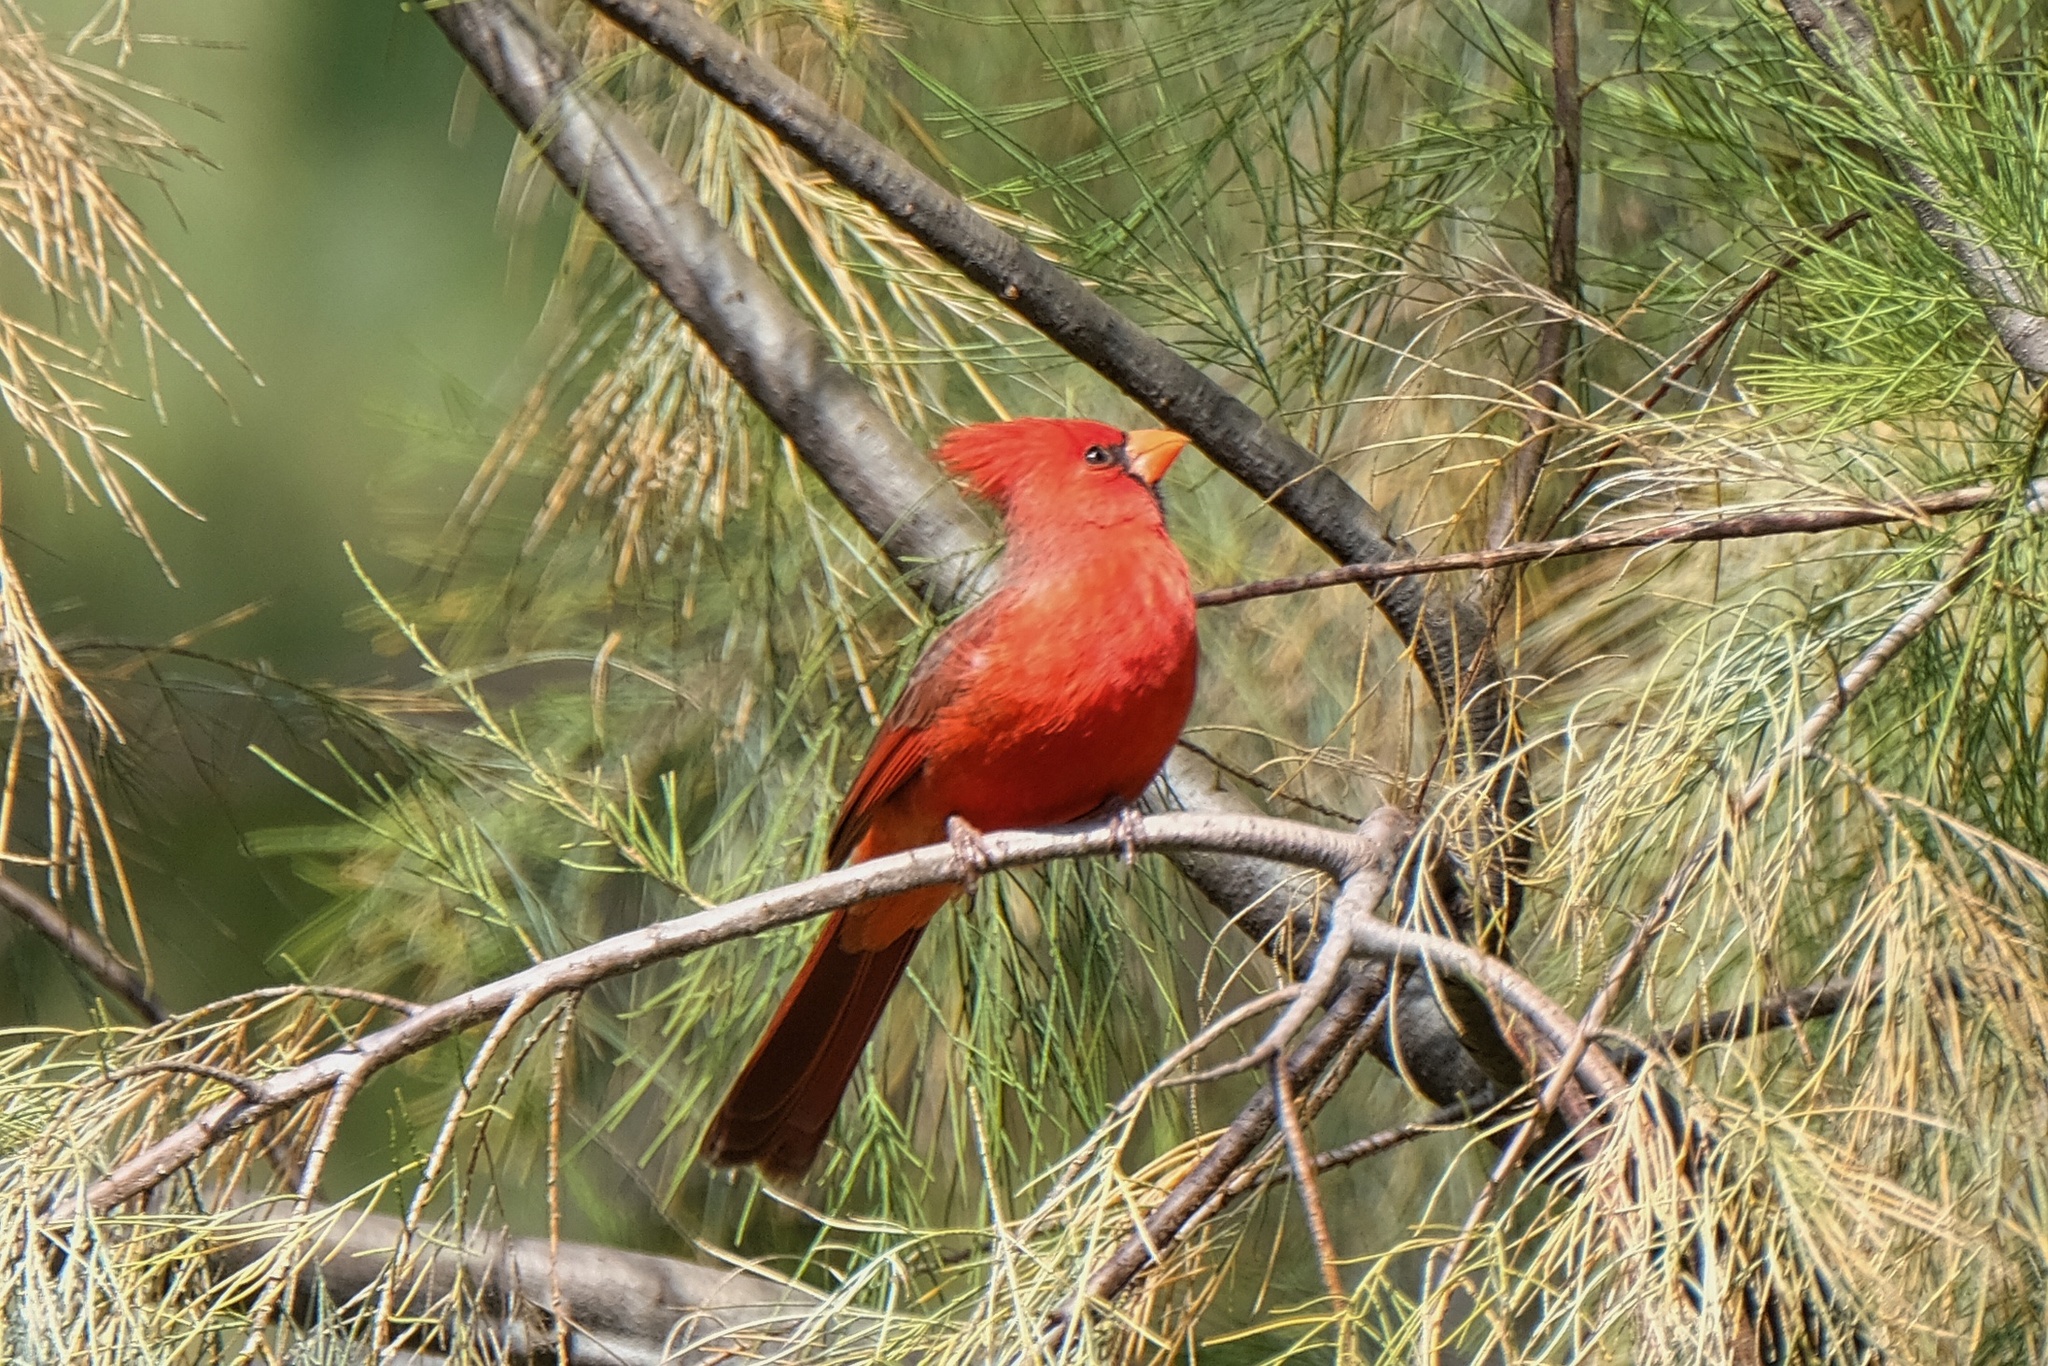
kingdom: Animalia
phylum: Chordata
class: Aves
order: Passeriformes
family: Cardinalidae
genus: Cardinalis
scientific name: Cardinalis cardinalis
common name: Northern cardinal
